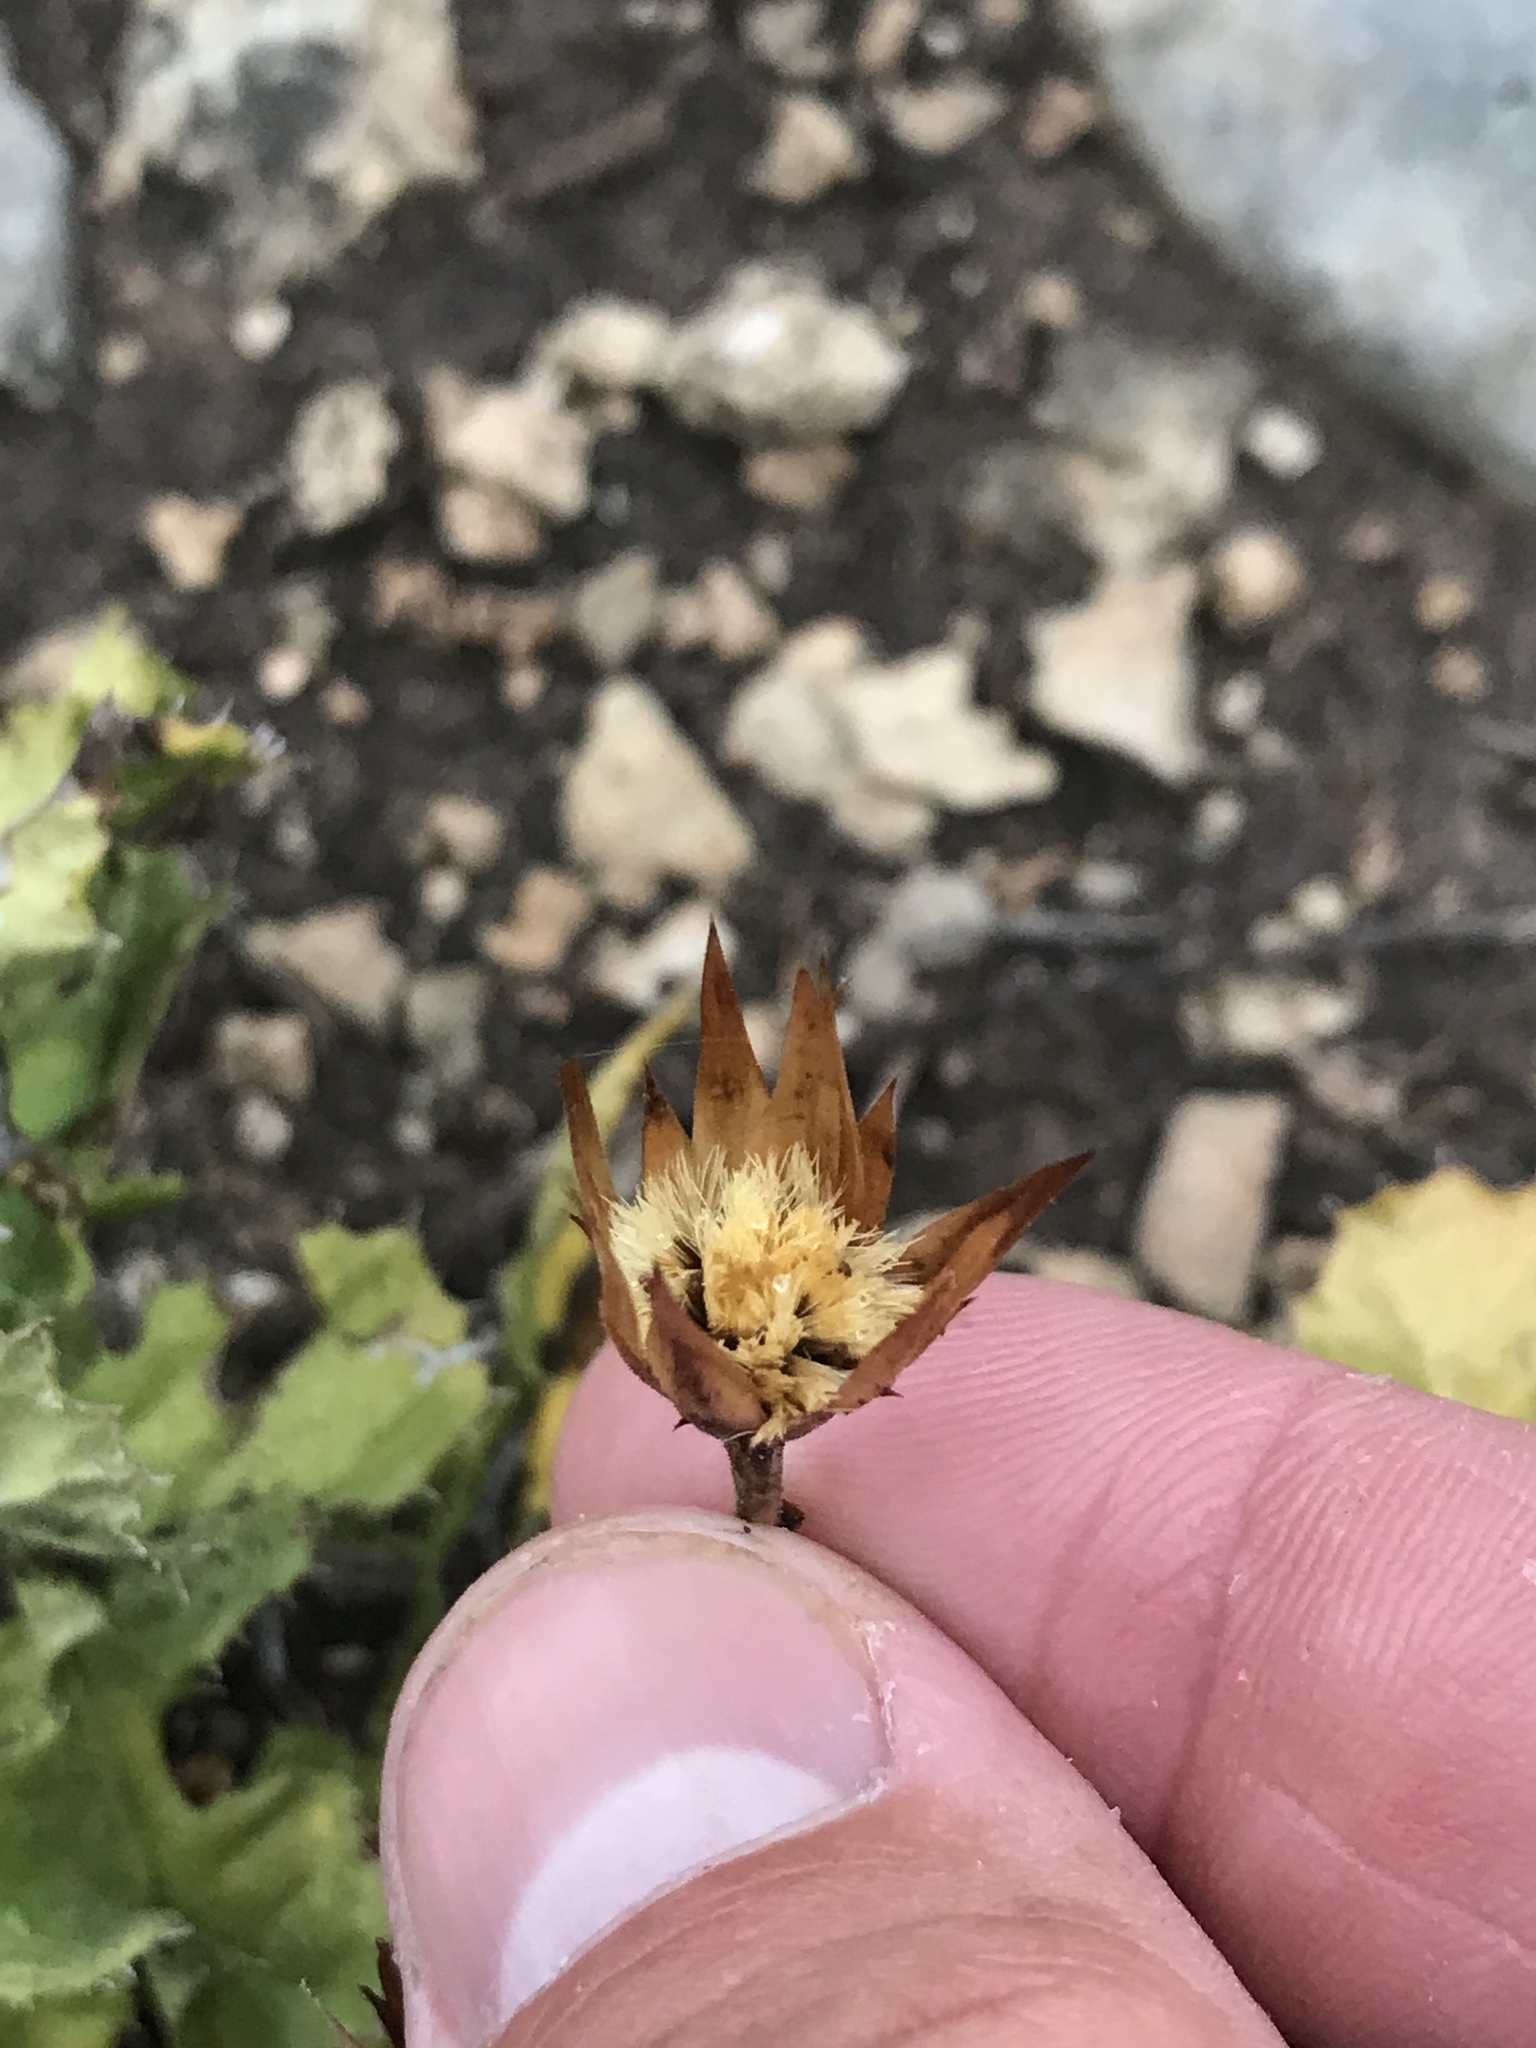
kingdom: Plantae
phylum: Tracheophyta
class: Magnoliopsida
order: Asterales
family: Asteraceae
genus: Acourtia
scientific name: Acourtia runcinata
